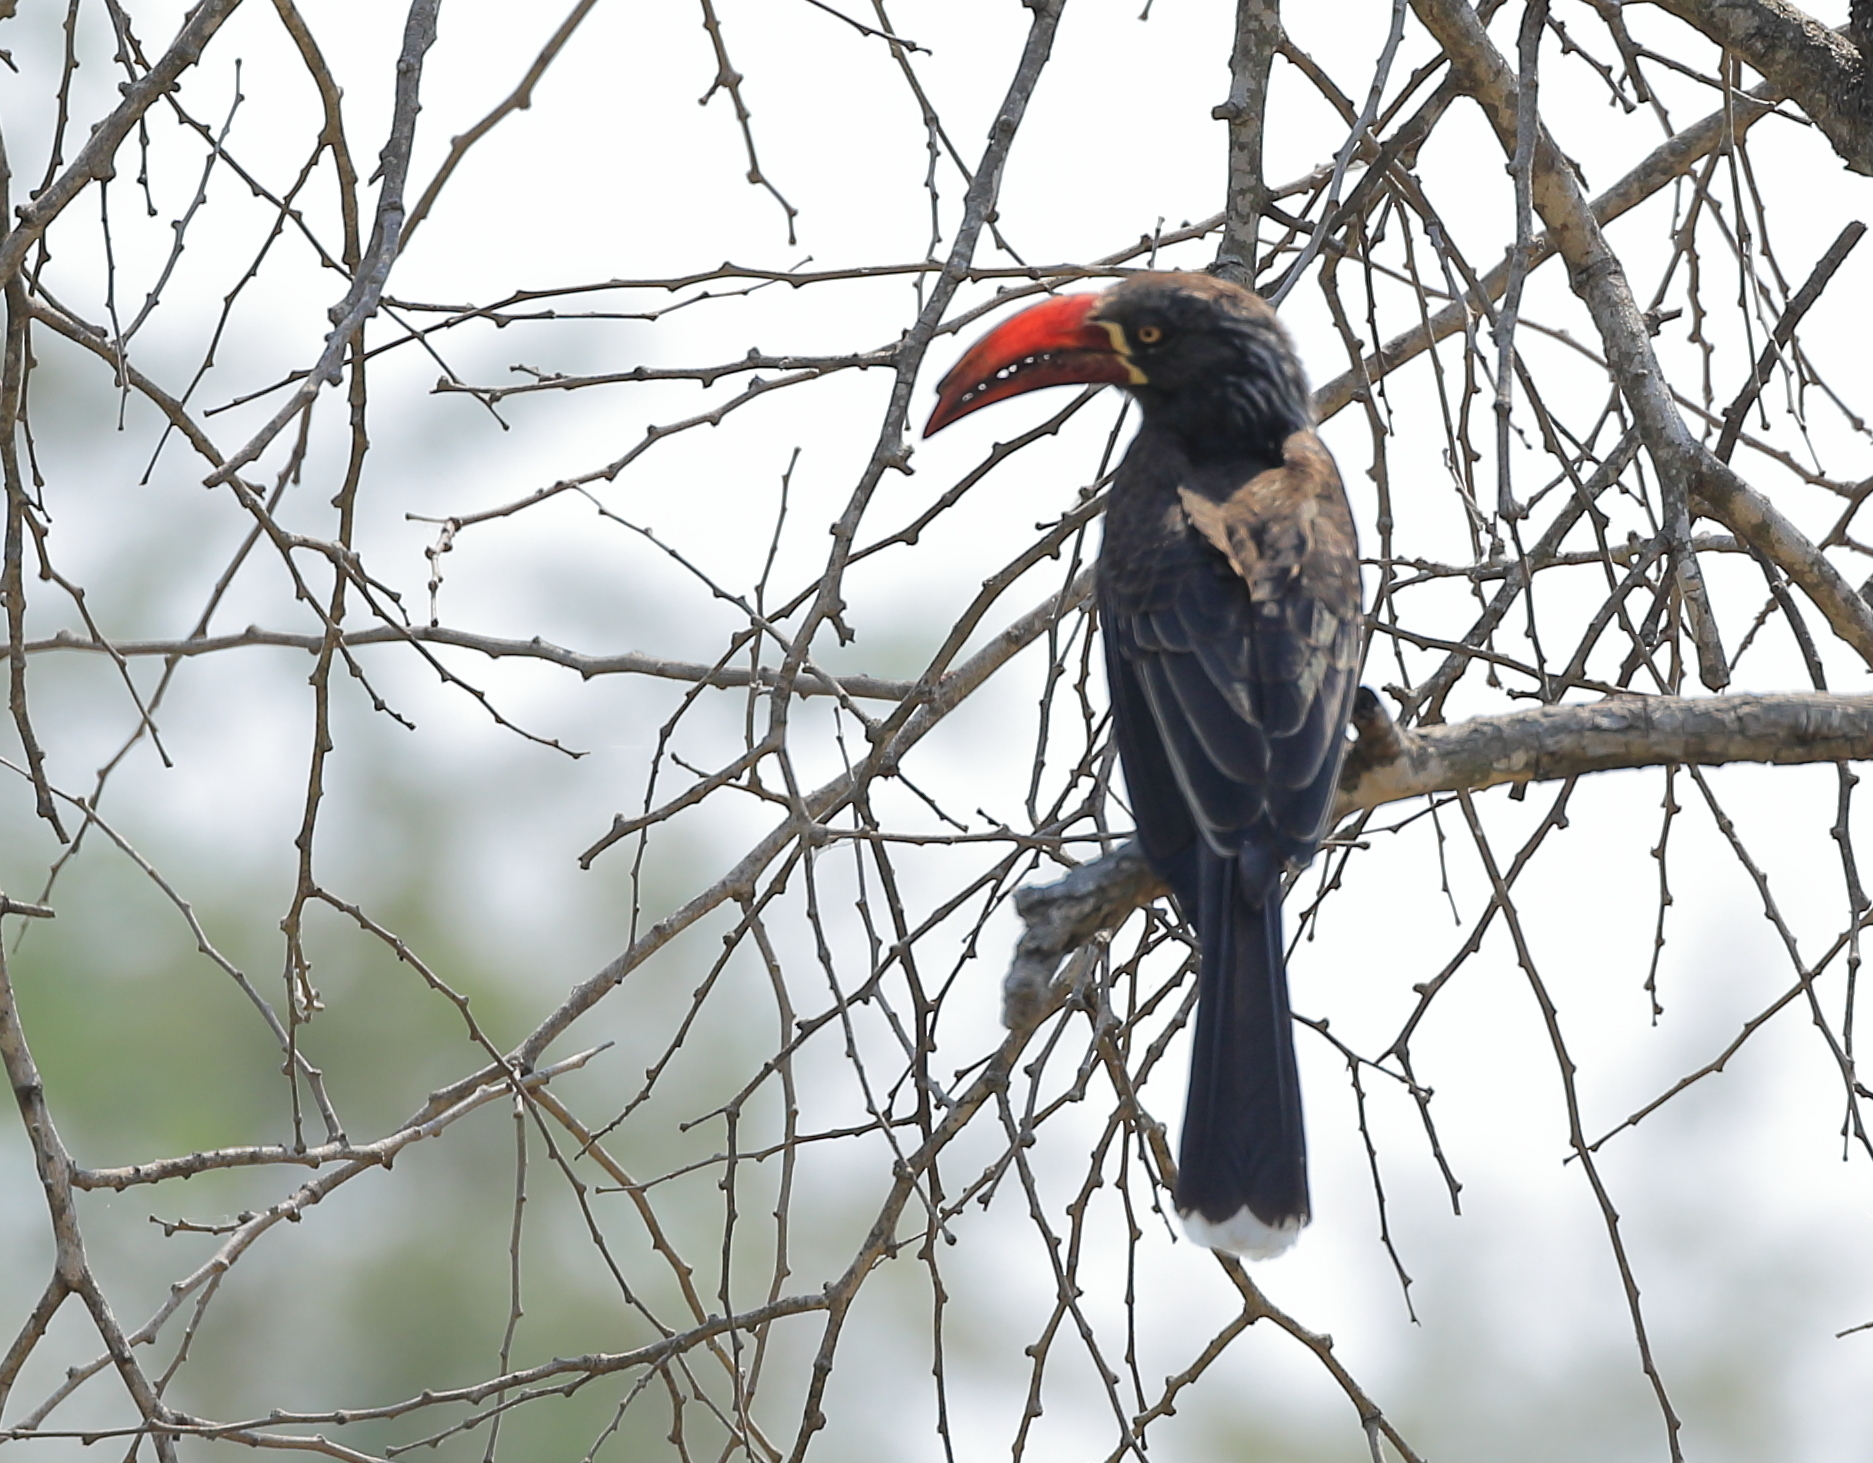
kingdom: Animalia
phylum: Chordata
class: Aves
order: Bucerotiformes
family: Bucerotidae
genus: Lophoceros
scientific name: Lophoceros alboterminatus
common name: Crowned hornbill
